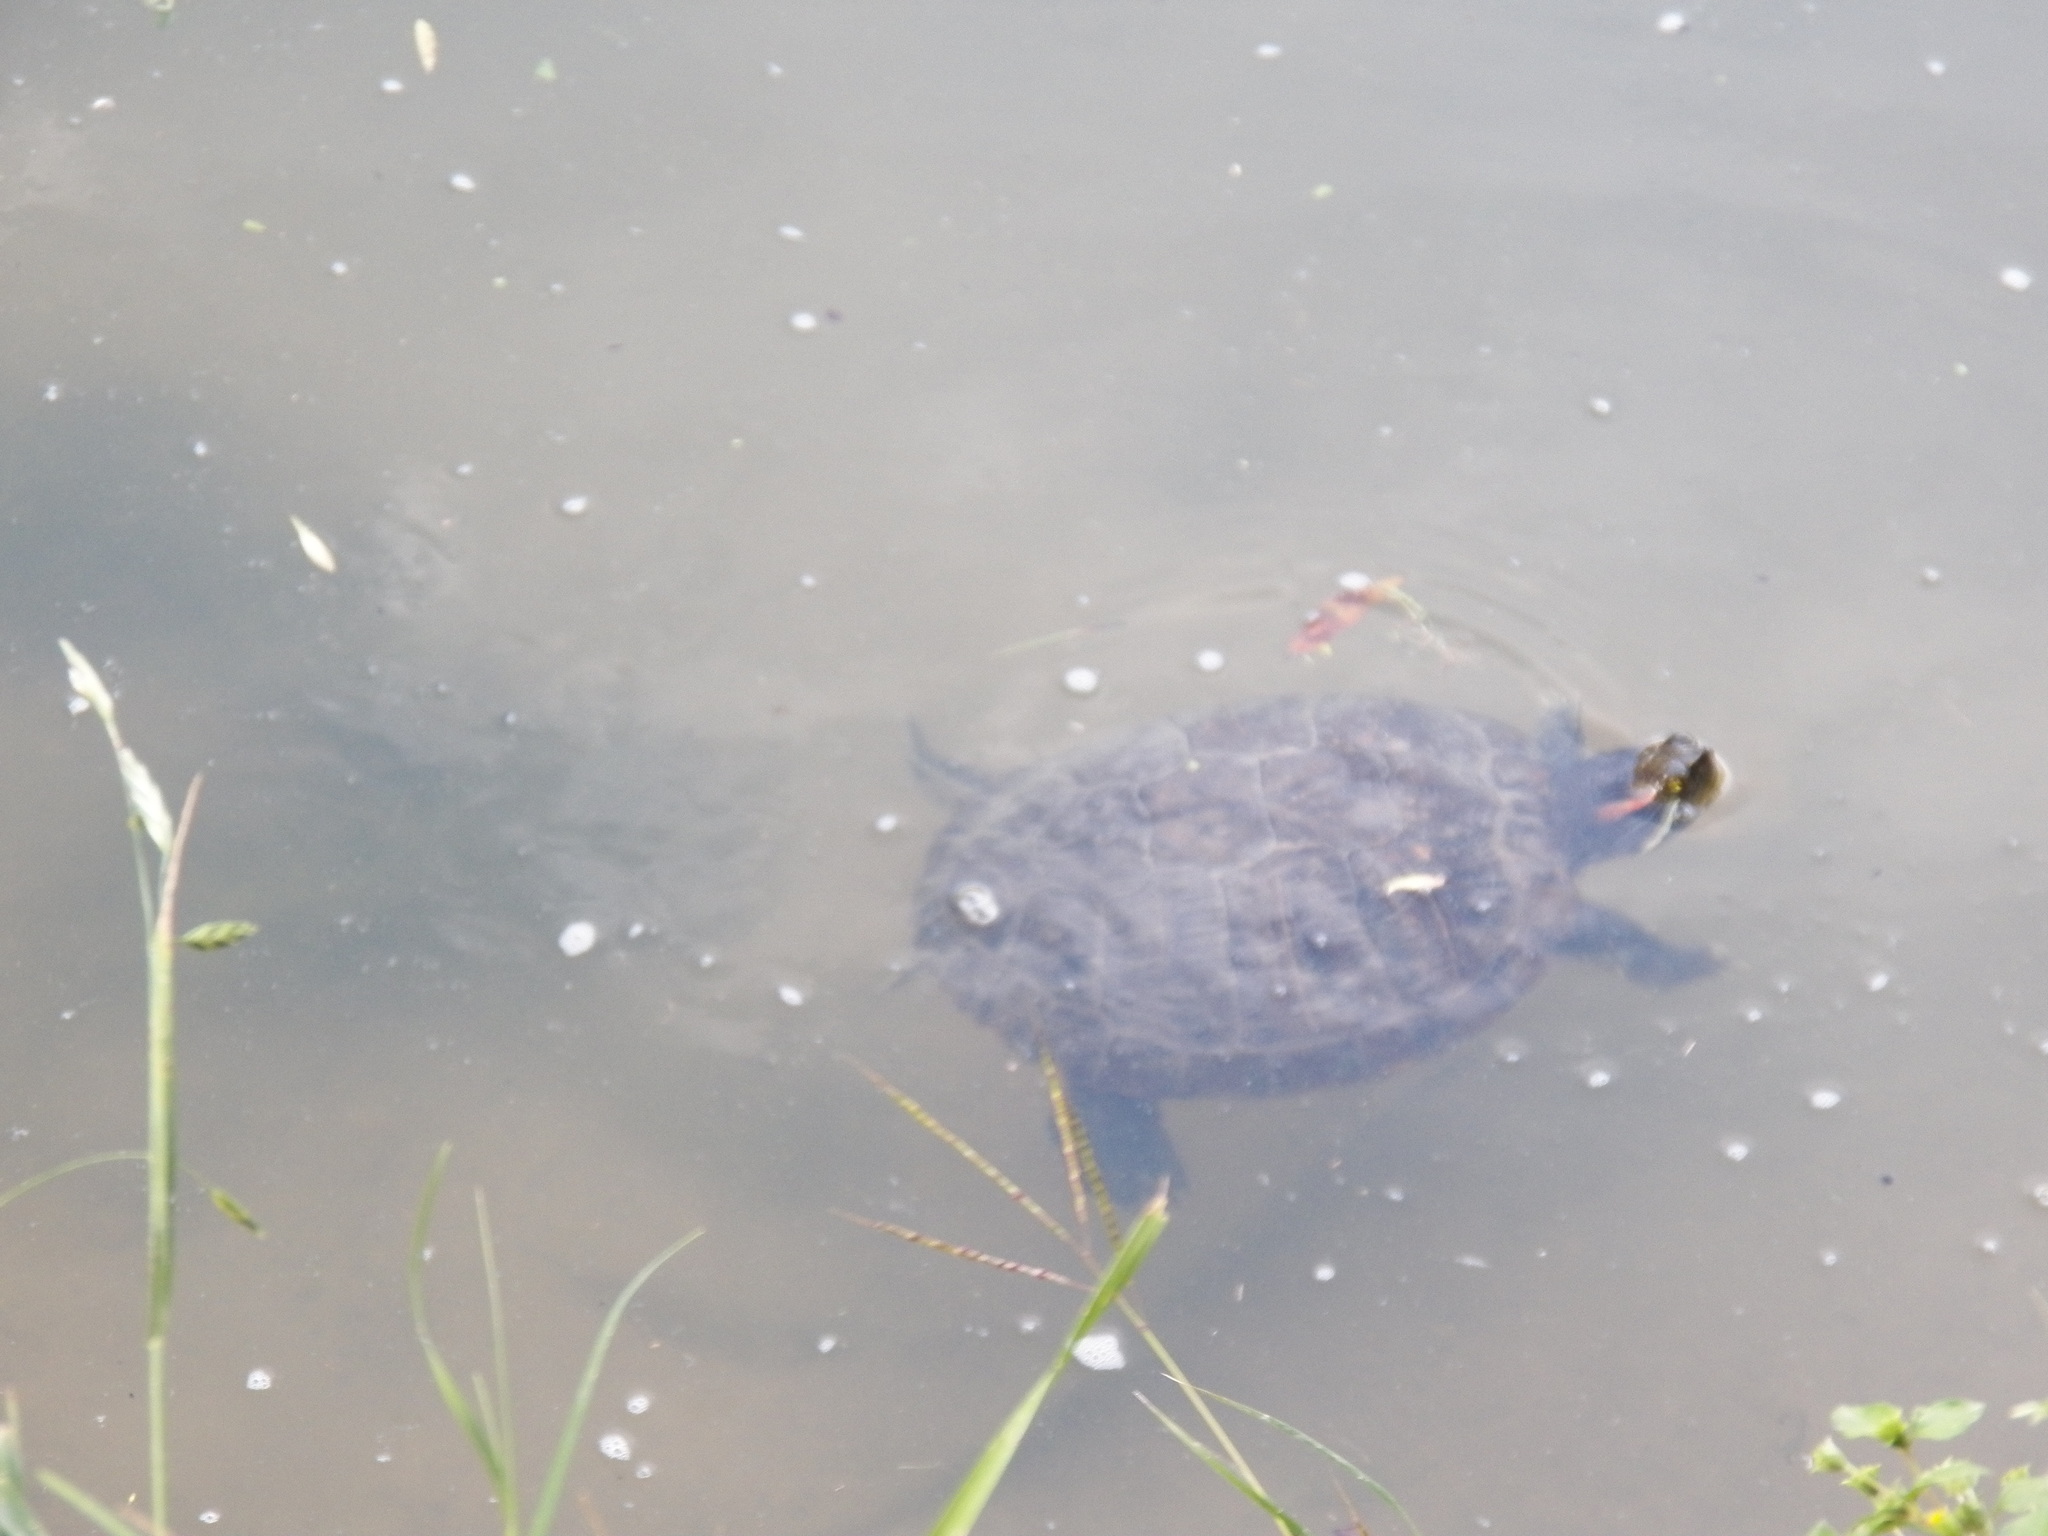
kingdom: Animalia
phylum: Chordata
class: Testudines
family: Emydidae
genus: Trachemys
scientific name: Trachemys scripta
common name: Slider
